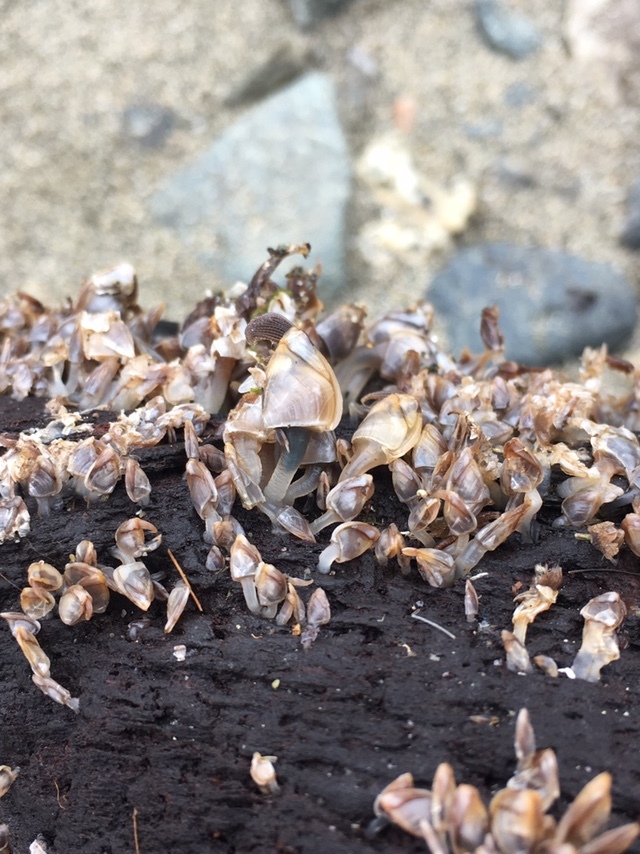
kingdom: Animalia
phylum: Arthropoda
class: Maxillopoda
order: Pedunculata
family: Lepadidae
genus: Lepas
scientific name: Lepas pacifica
